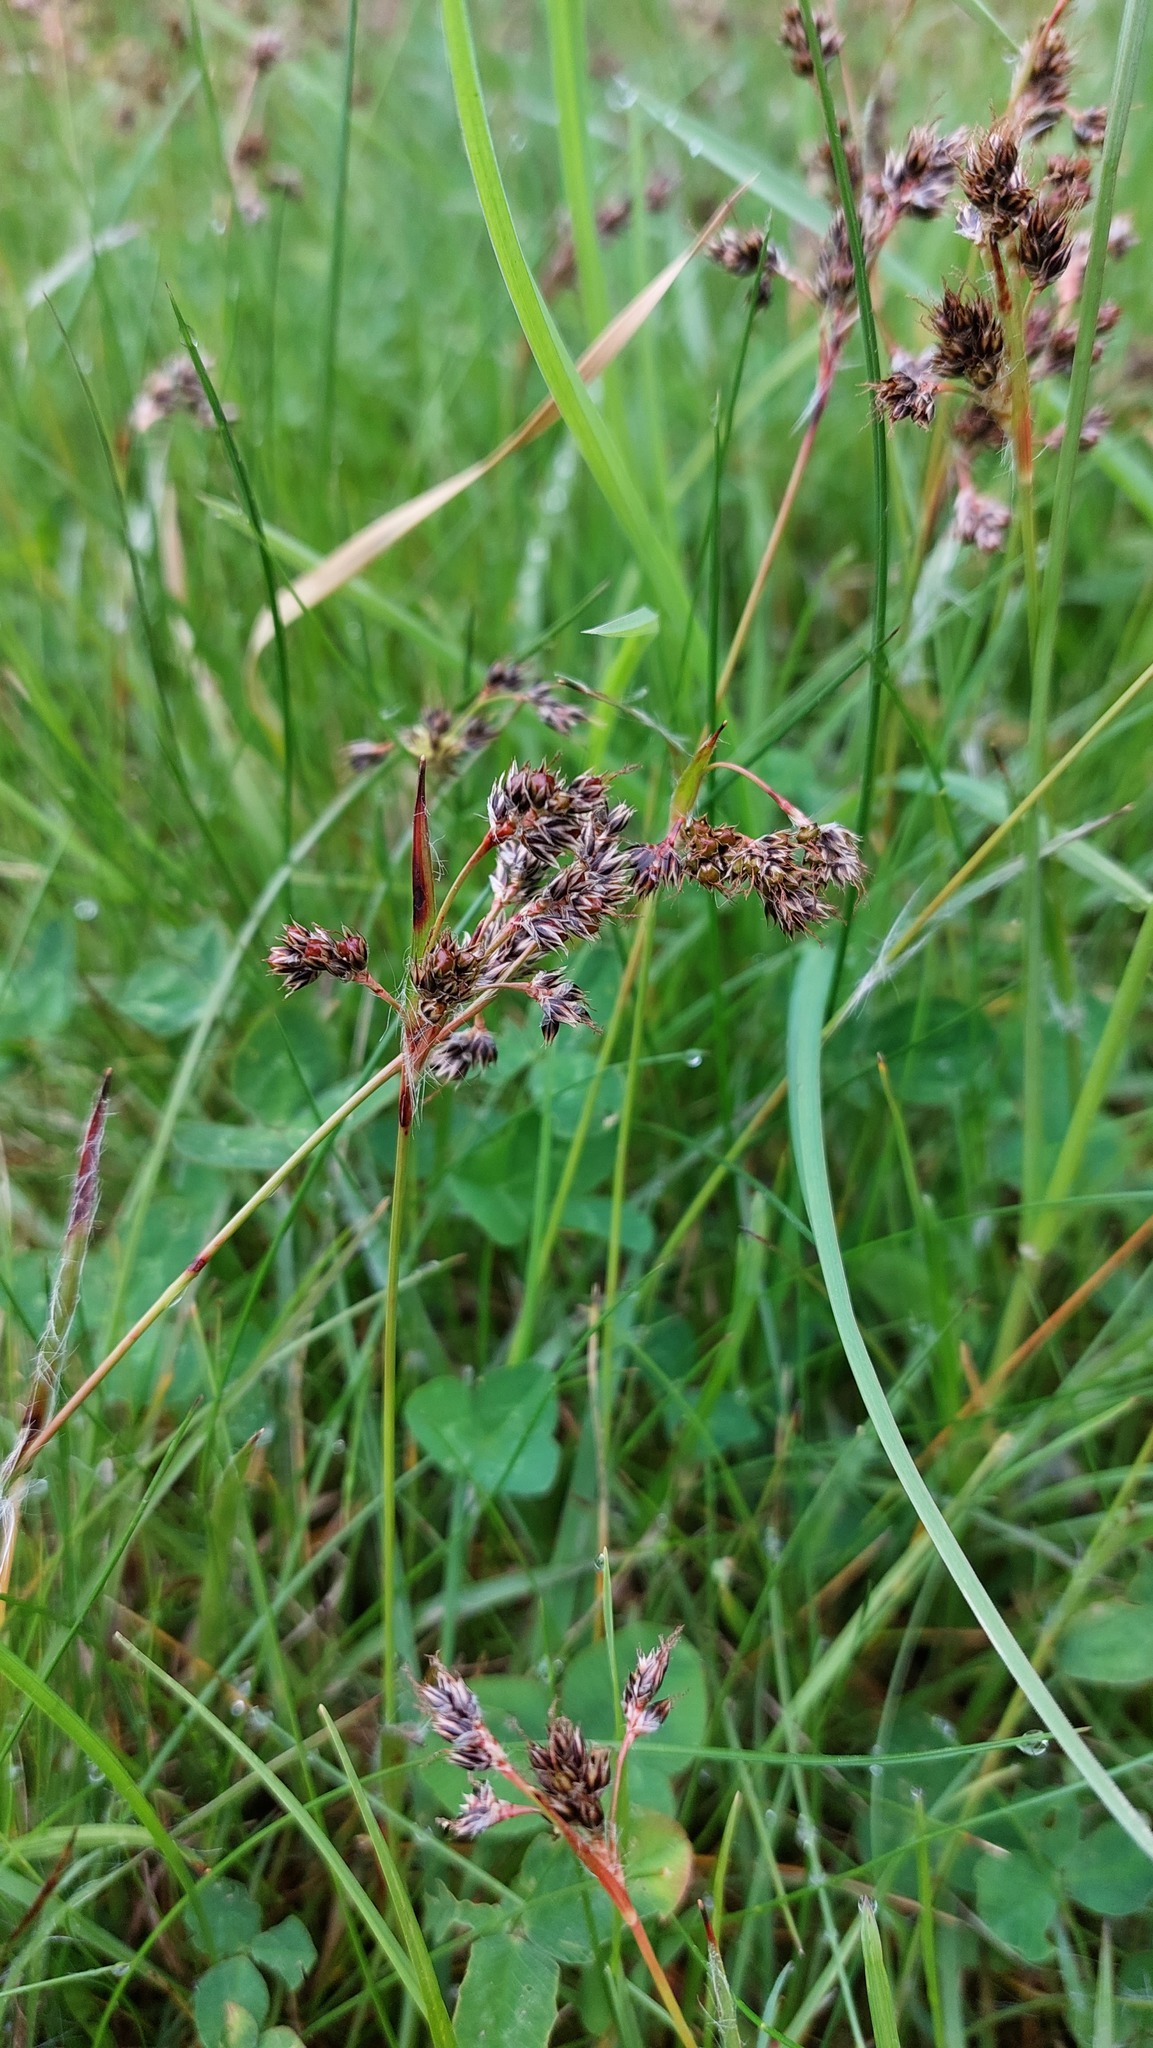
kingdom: Plantae
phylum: Tracheophyta
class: Liliopsida
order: Poales
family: Juncaceae
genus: Luzula
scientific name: Luzula campestris
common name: Field wood-rush
